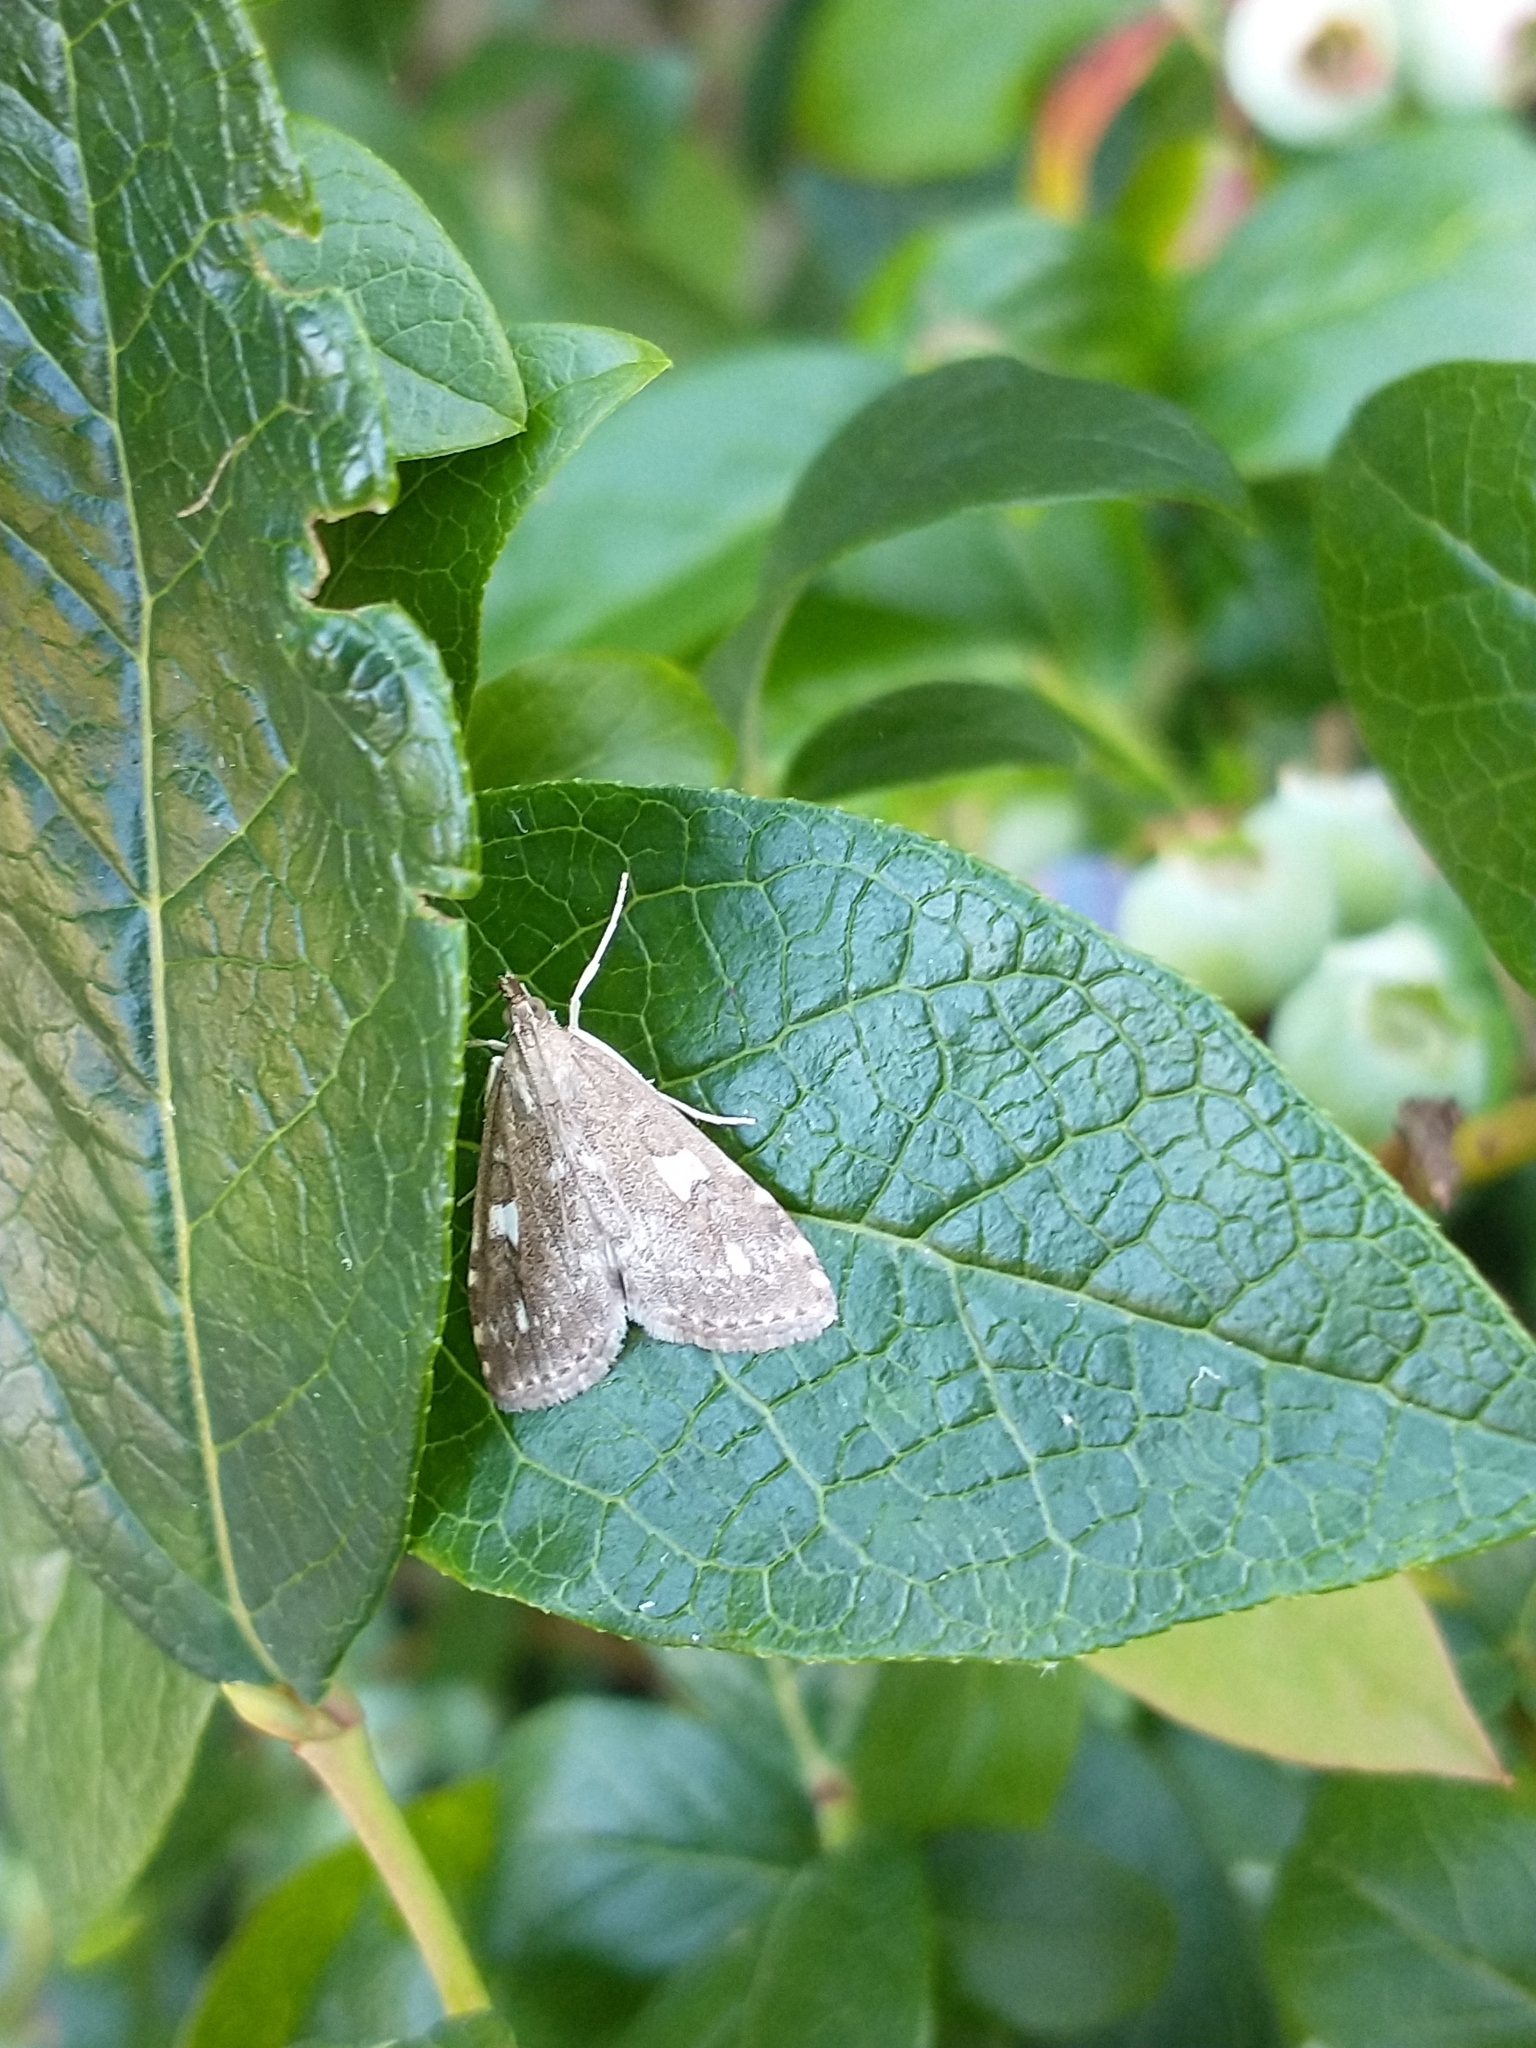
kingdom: Animalia
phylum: Arthropoda
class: Insecta
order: Lepidoptera
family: Crambidae
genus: Udea
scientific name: Udea olivalis
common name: Olive pearl
